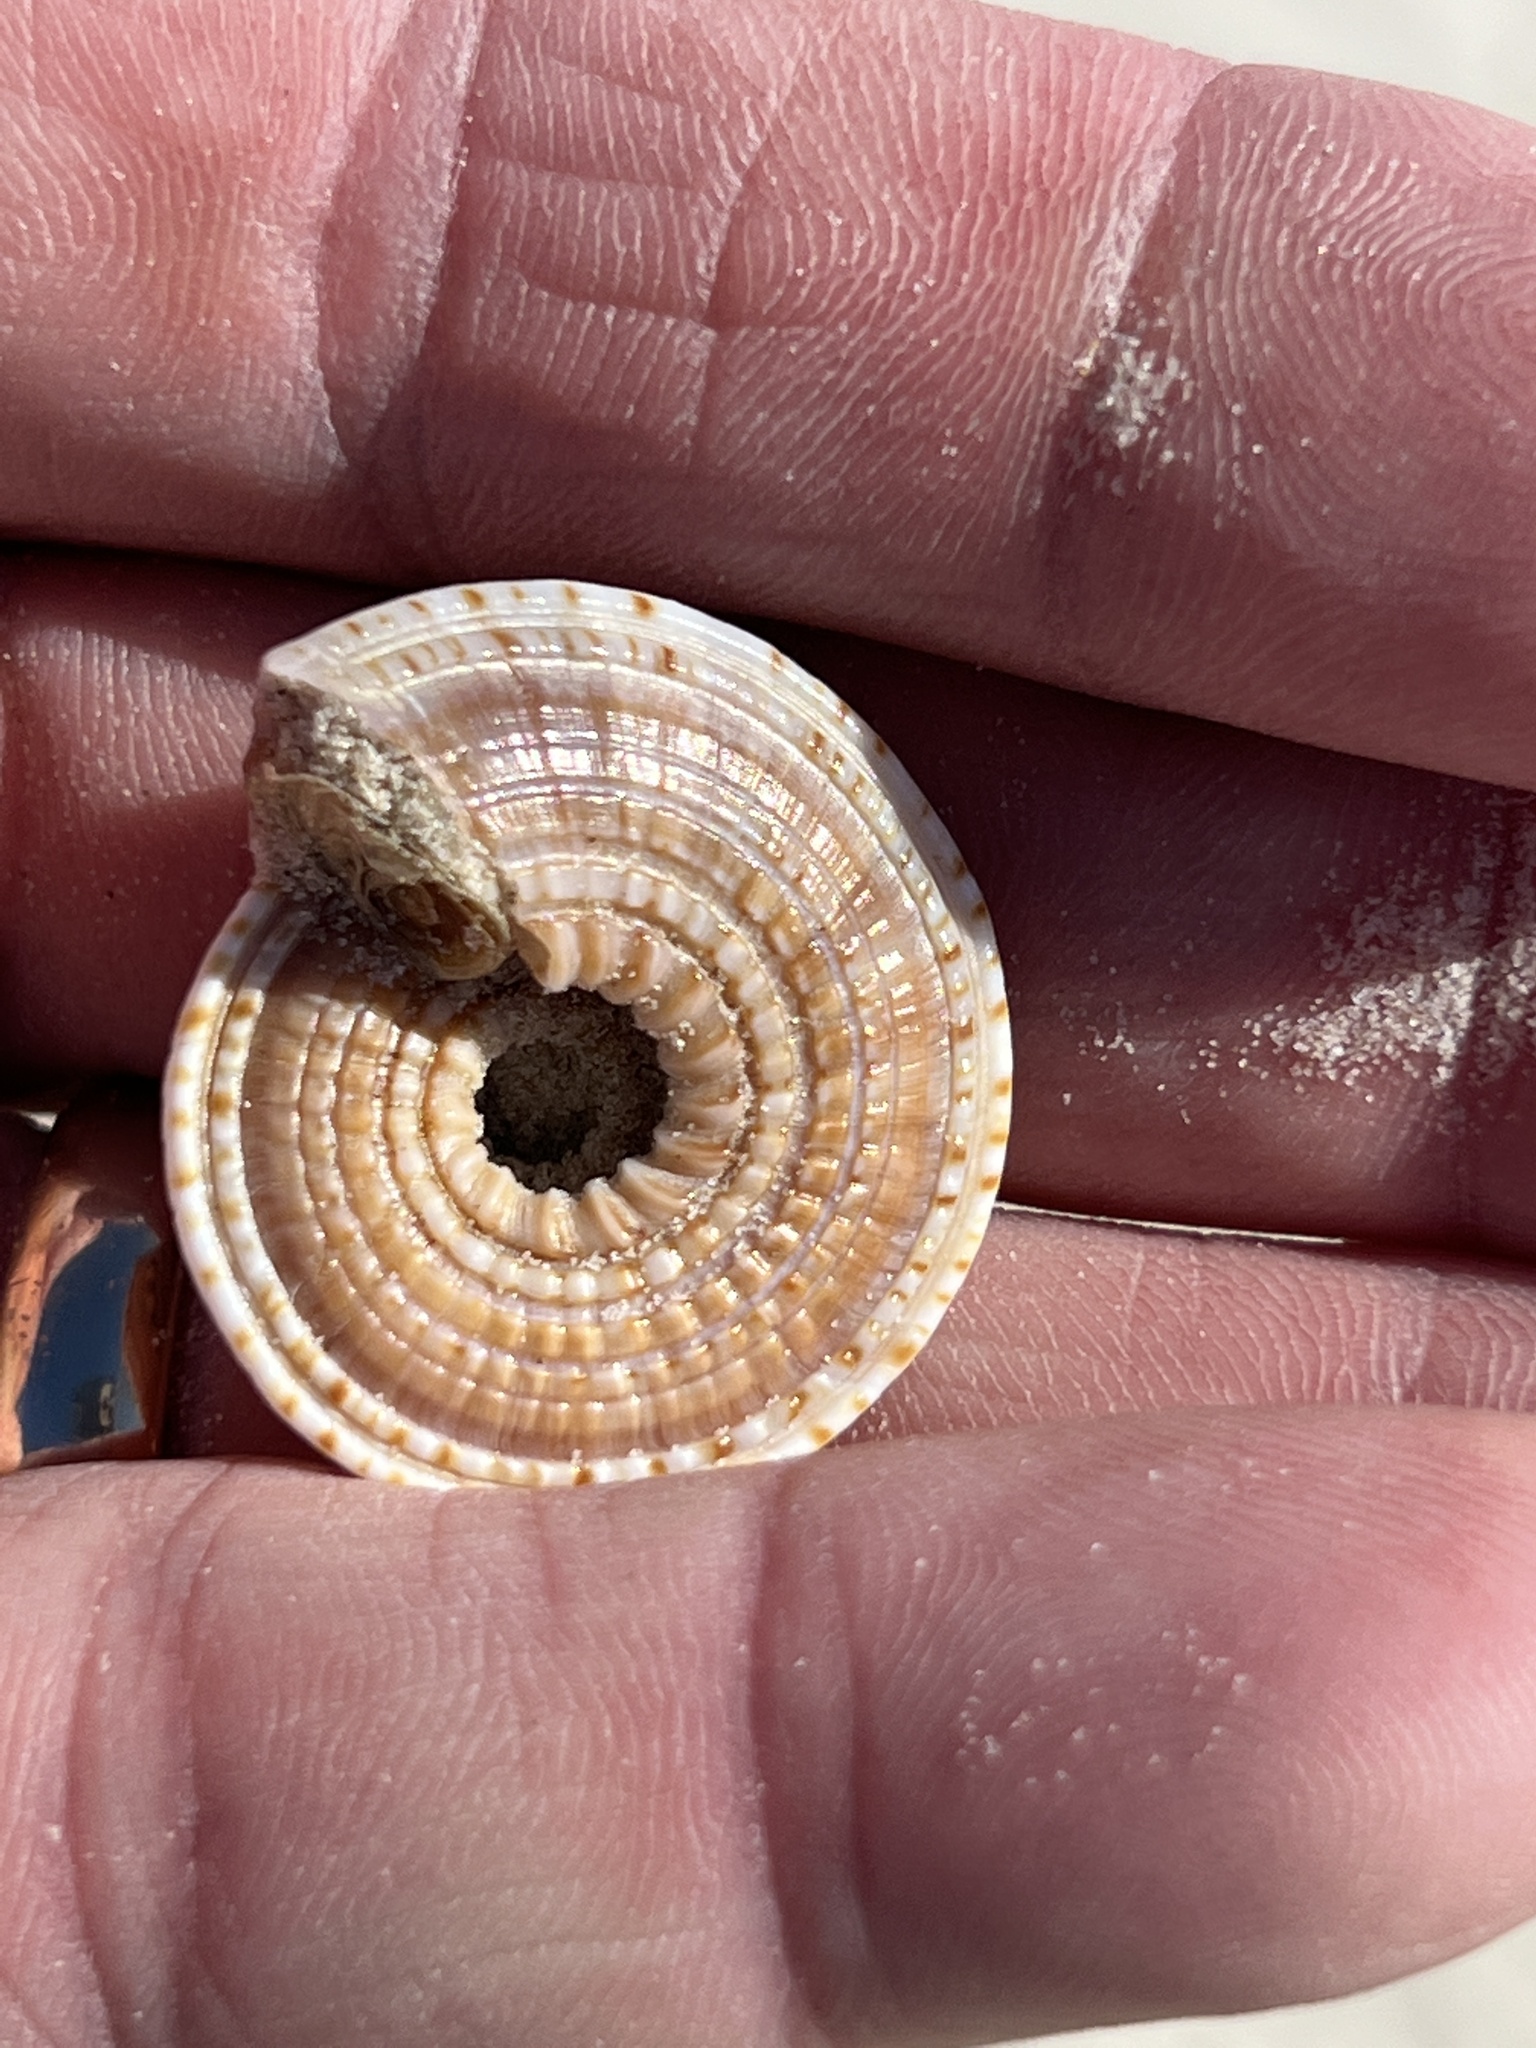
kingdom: Animalia
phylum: Mollusca
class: Gastropoda
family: Architectonicidae
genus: Architectonica
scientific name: Architectonica nobilis
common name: Common sundial
